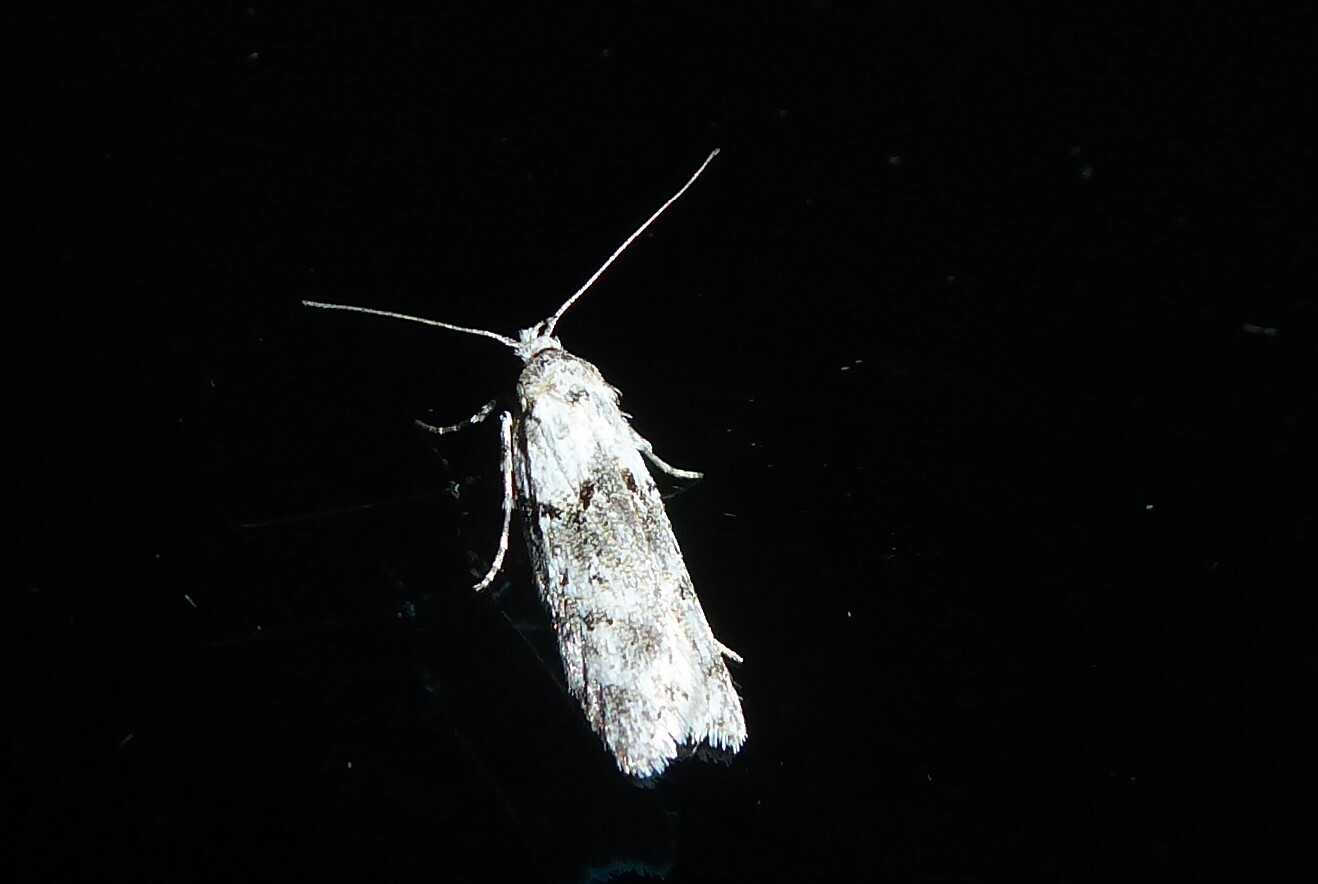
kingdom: Animalia
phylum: Arthropoda
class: Insecta
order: Lepidoptera
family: Oecophoridae
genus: Izatha
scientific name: Izatha convulsella
